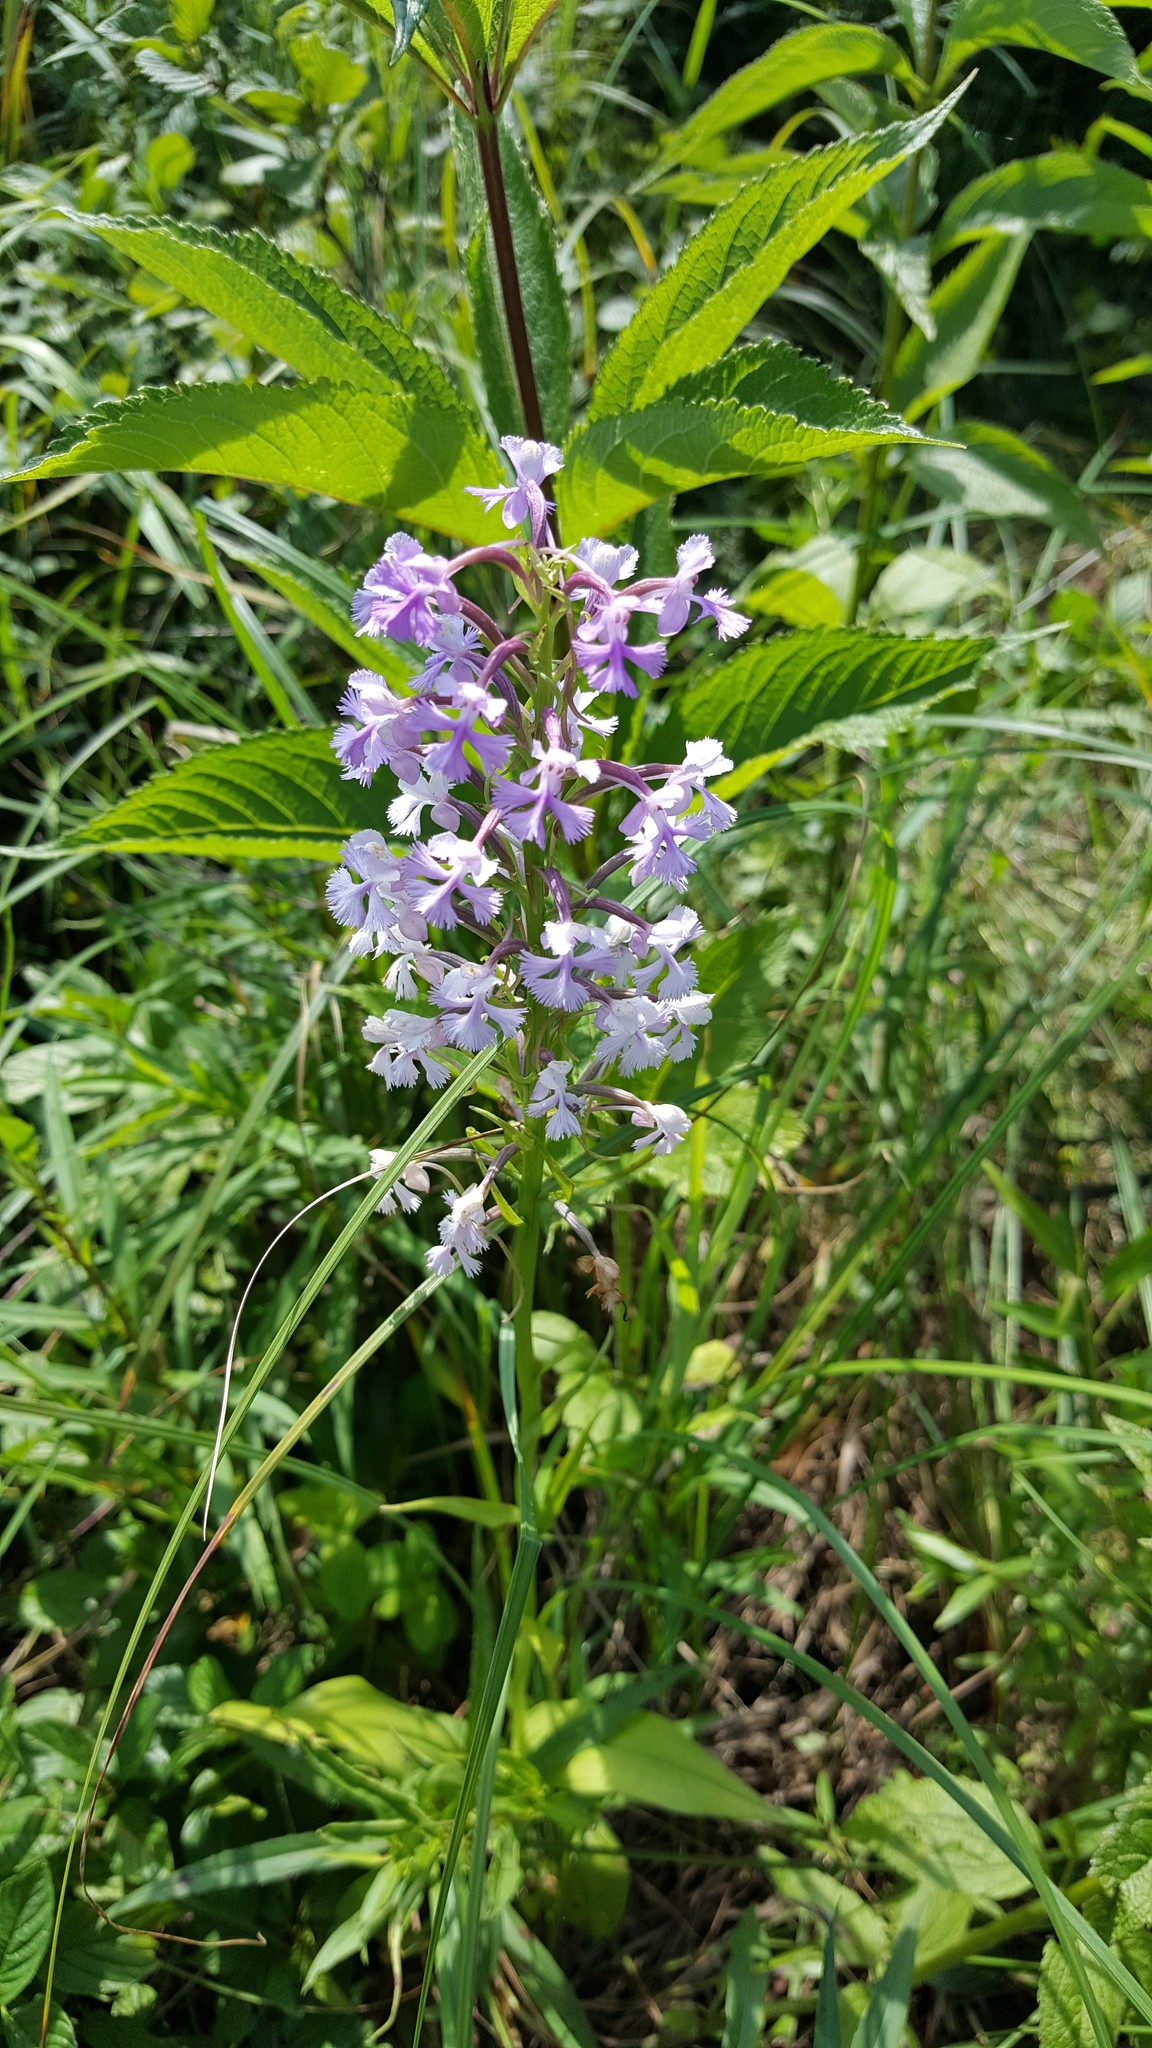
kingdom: Plantae
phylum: Tracheophyta
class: Liliopsida
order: Asparagales
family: Orchidaceae
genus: Platanthera
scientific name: Platanthera psycodes
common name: Lesser purple fringed orchid
